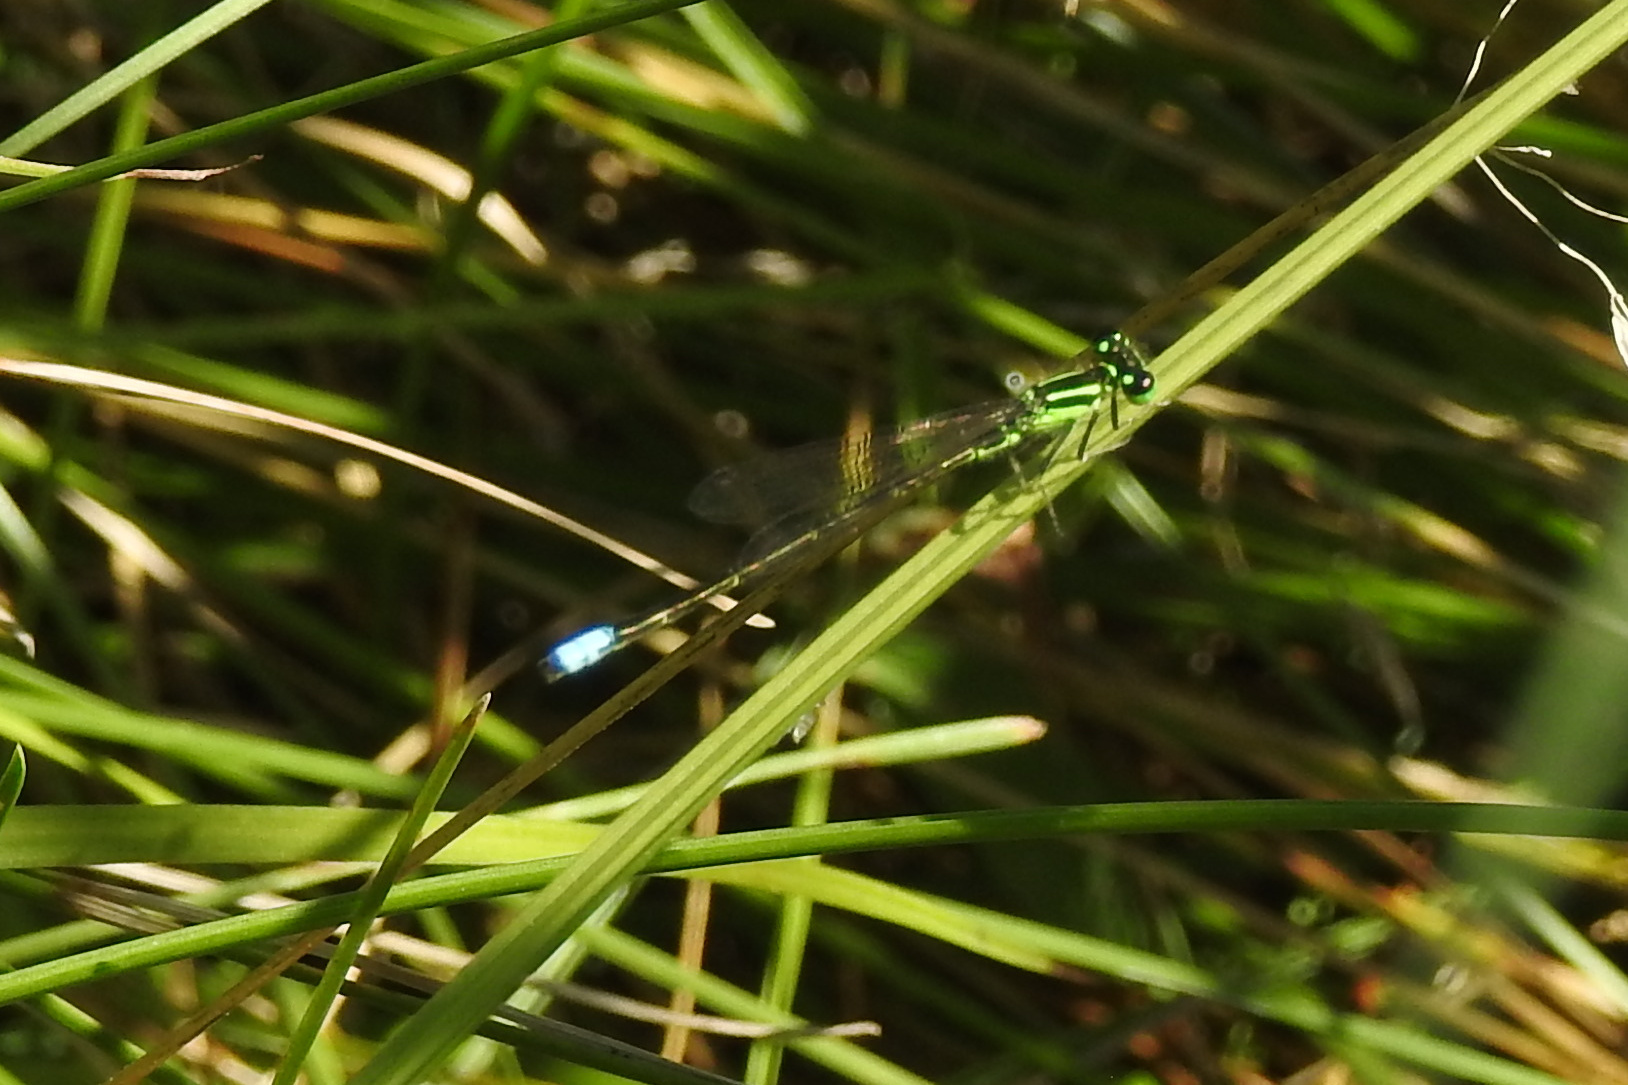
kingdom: Animalia
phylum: Arthropoda
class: Insecta
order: Odonata
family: Coenagrionidae
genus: Ischnura
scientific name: Ischnura verticalis
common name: Eastern forktail
